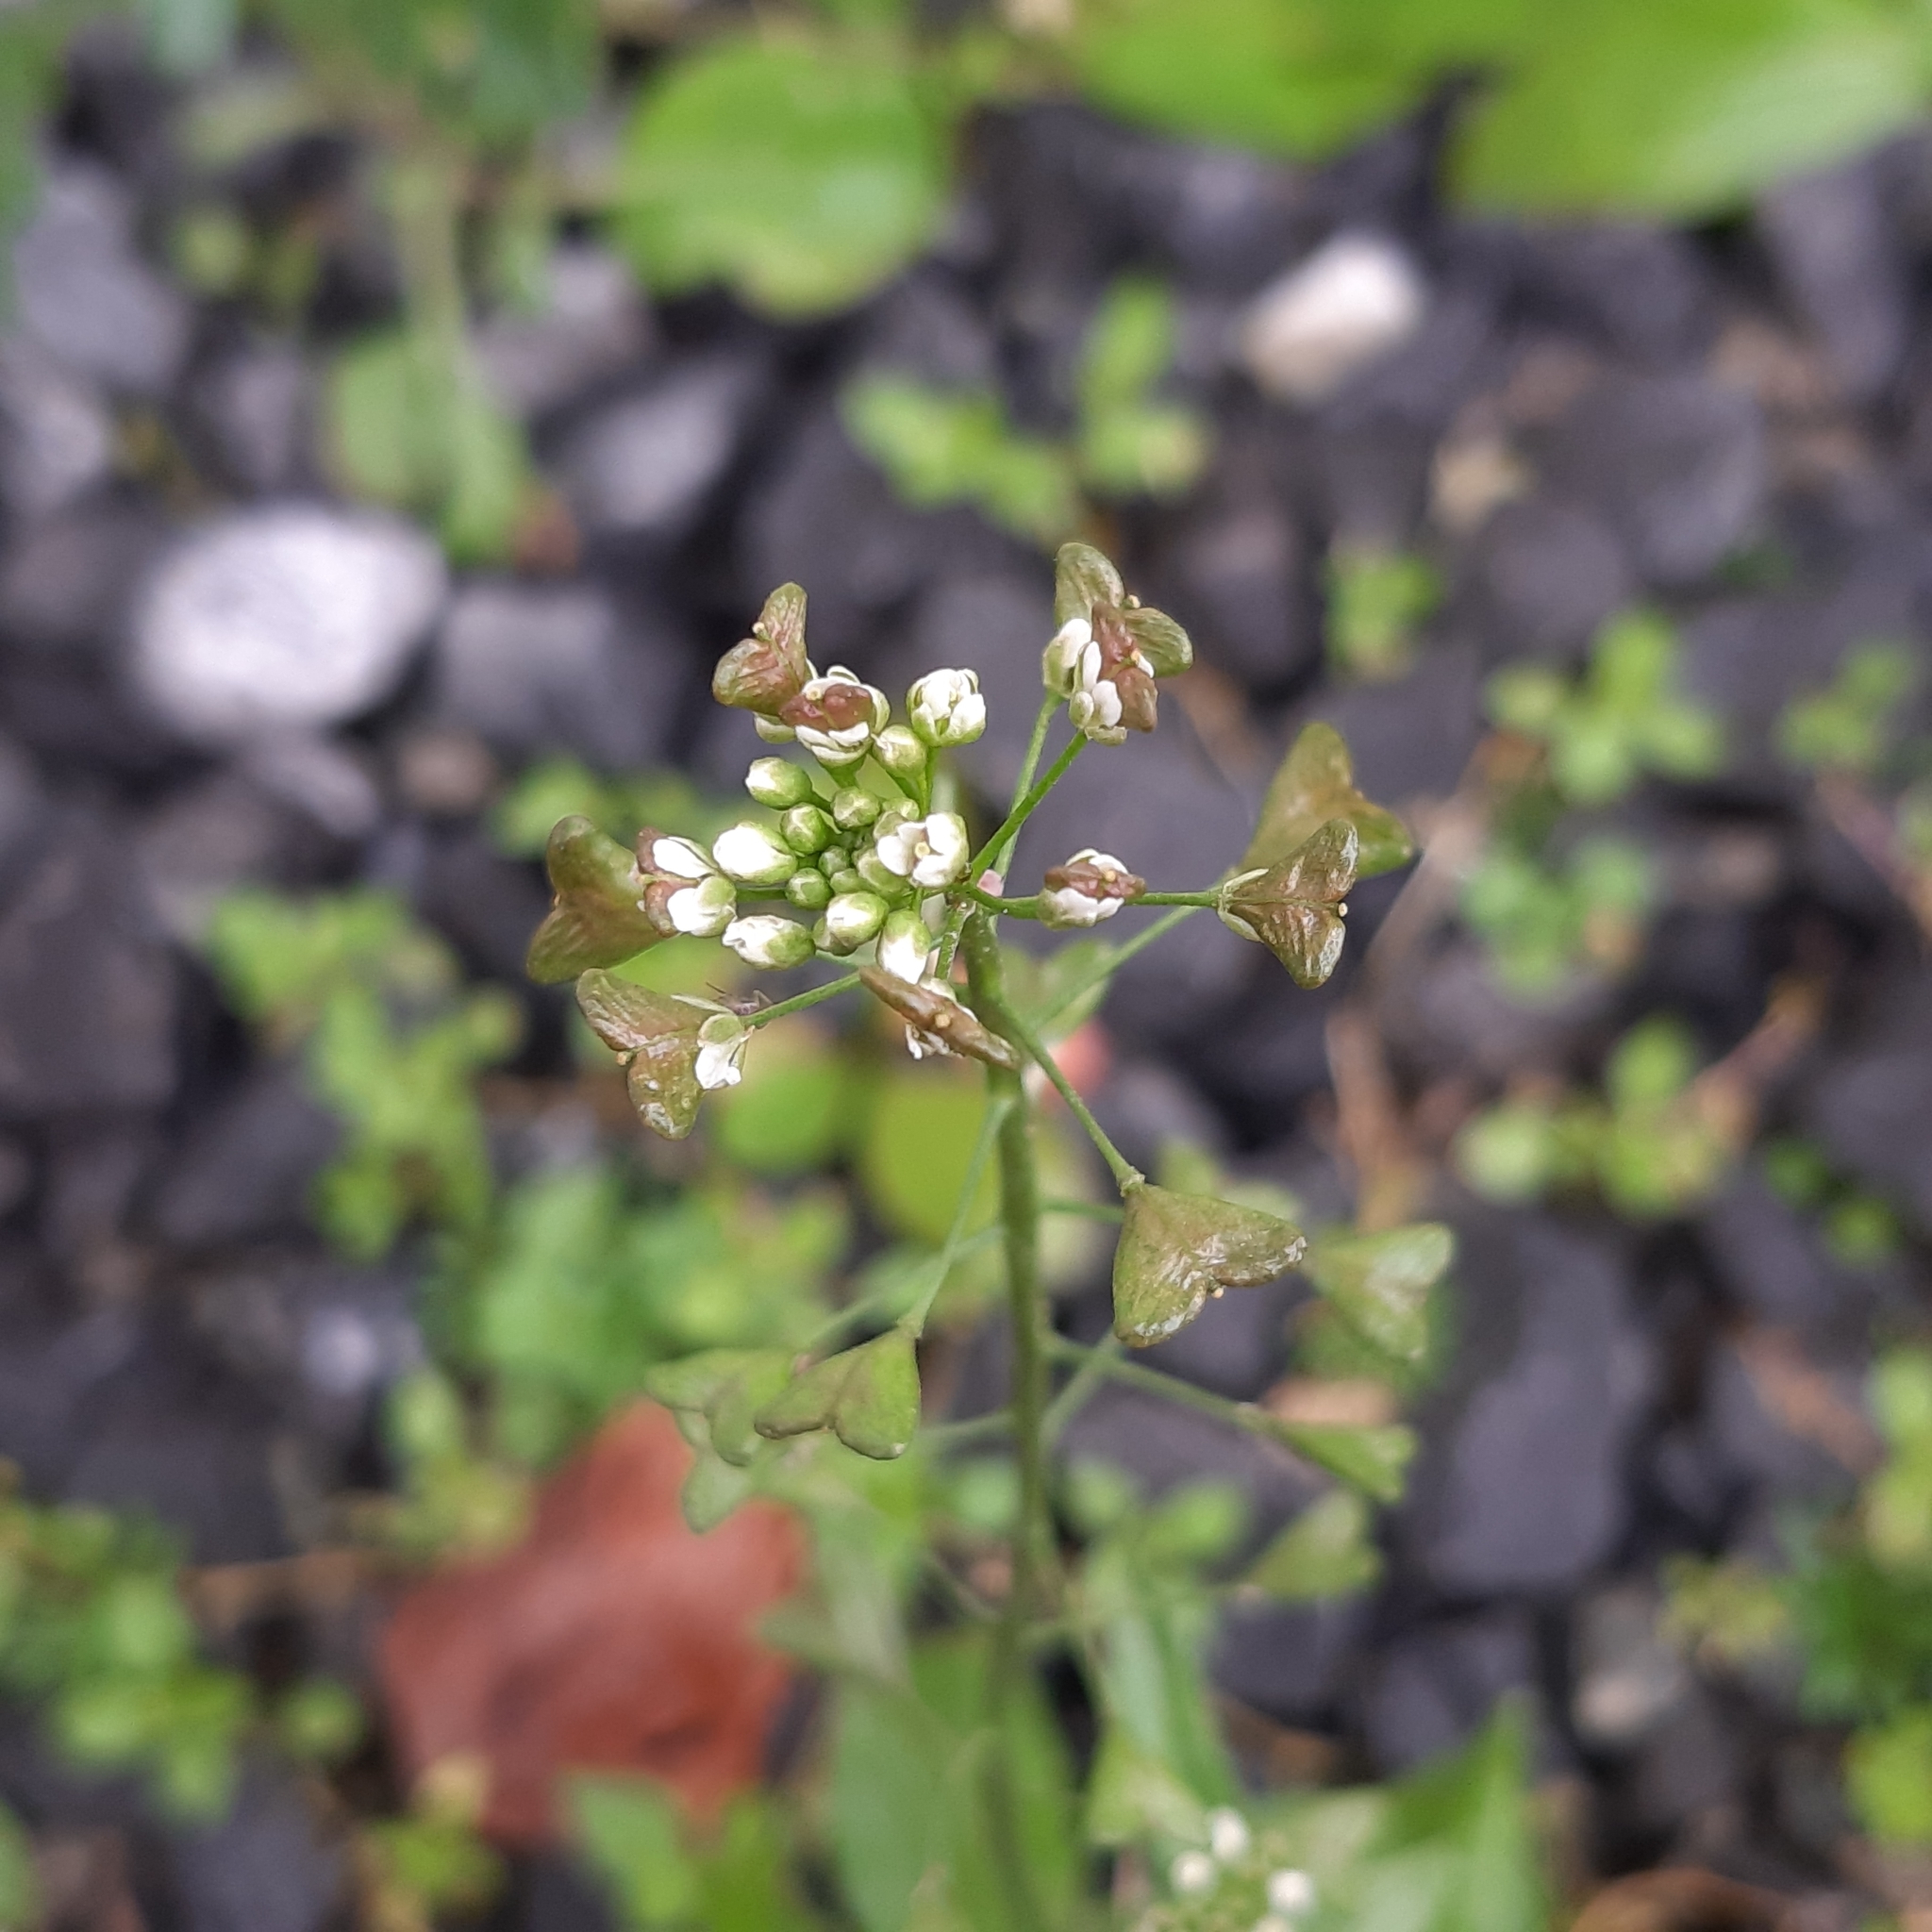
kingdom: Plantae
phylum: Tracheophyta
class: Magnoliopsida
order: Brassicales
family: Brassicaceae
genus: Capsella
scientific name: Capsella bursa-pastoris
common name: Shepherd's purse
